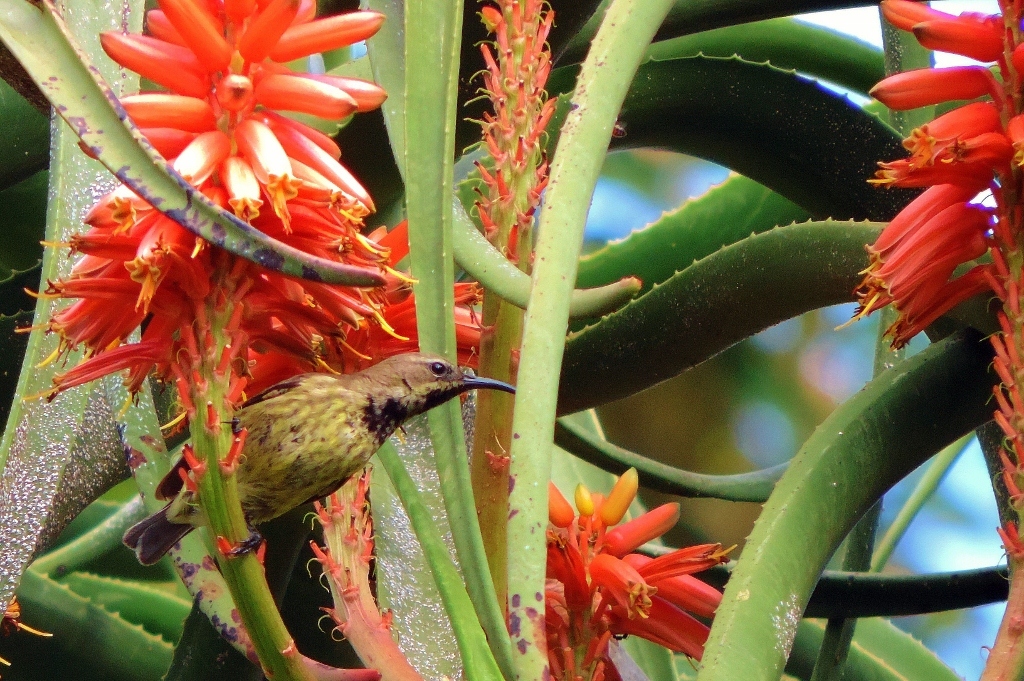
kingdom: Animalia
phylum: Chordata
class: Aves
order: Passeriformes
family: Nectariniidae
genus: Chalcomitra
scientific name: Chalcomitra amethystina
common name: Amethyst sunbird
